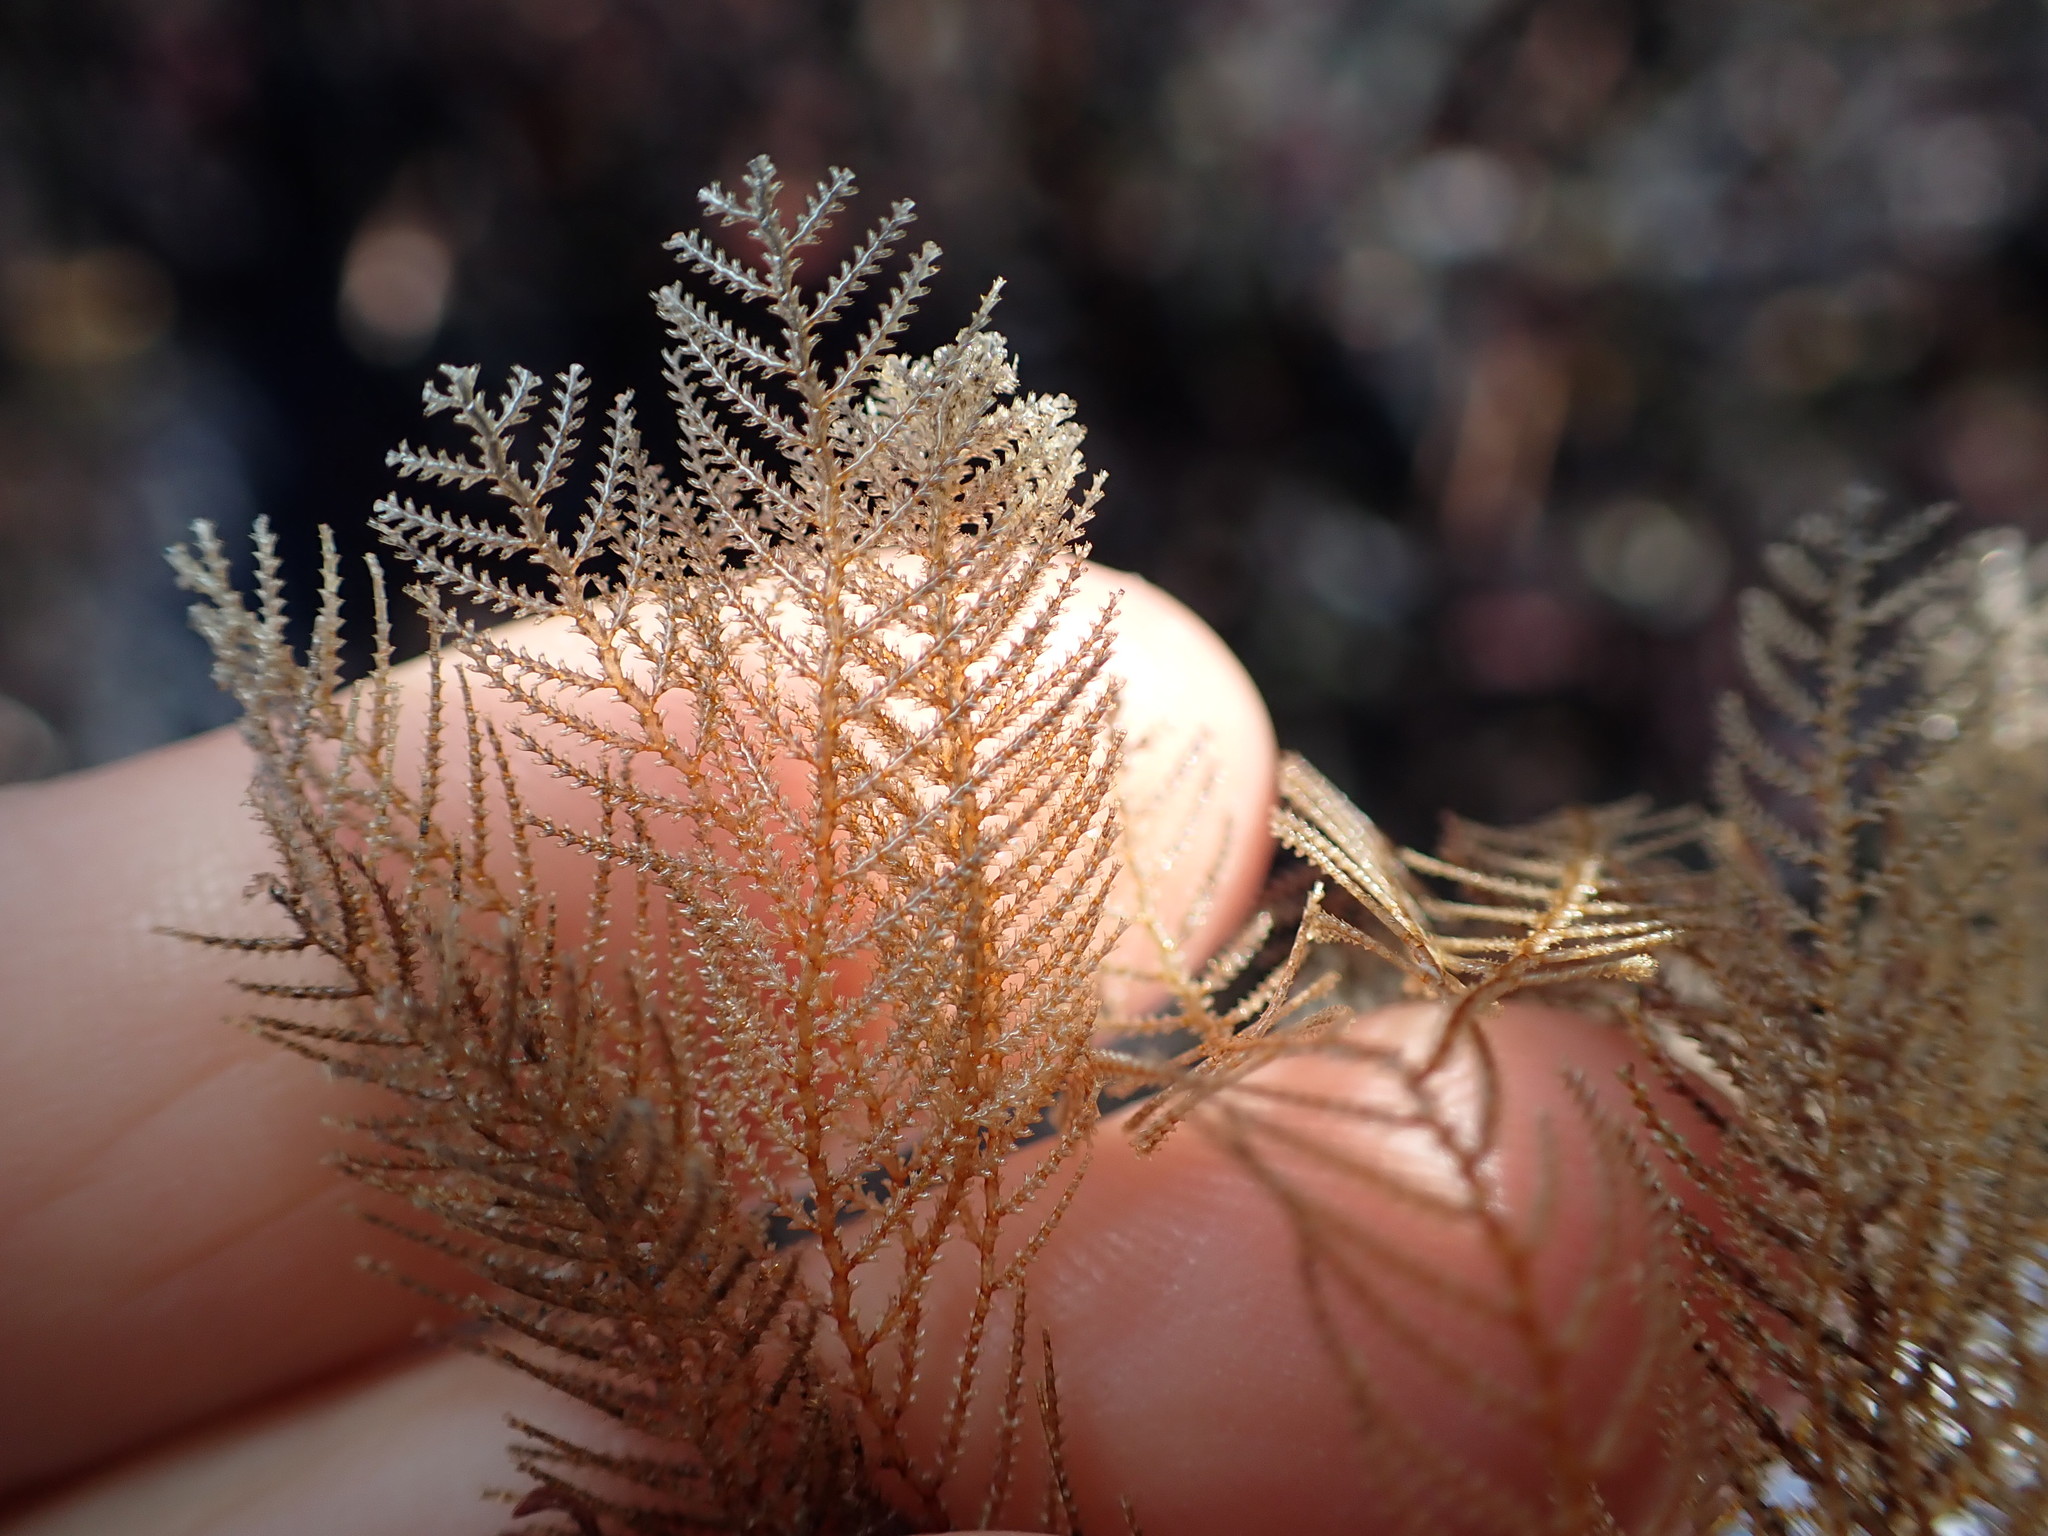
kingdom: Animalia
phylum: Cnidaria
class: Hydrozoa
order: Leptothecata
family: Sertulariidae
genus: Sertularia
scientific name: Sertularia unguiculata
